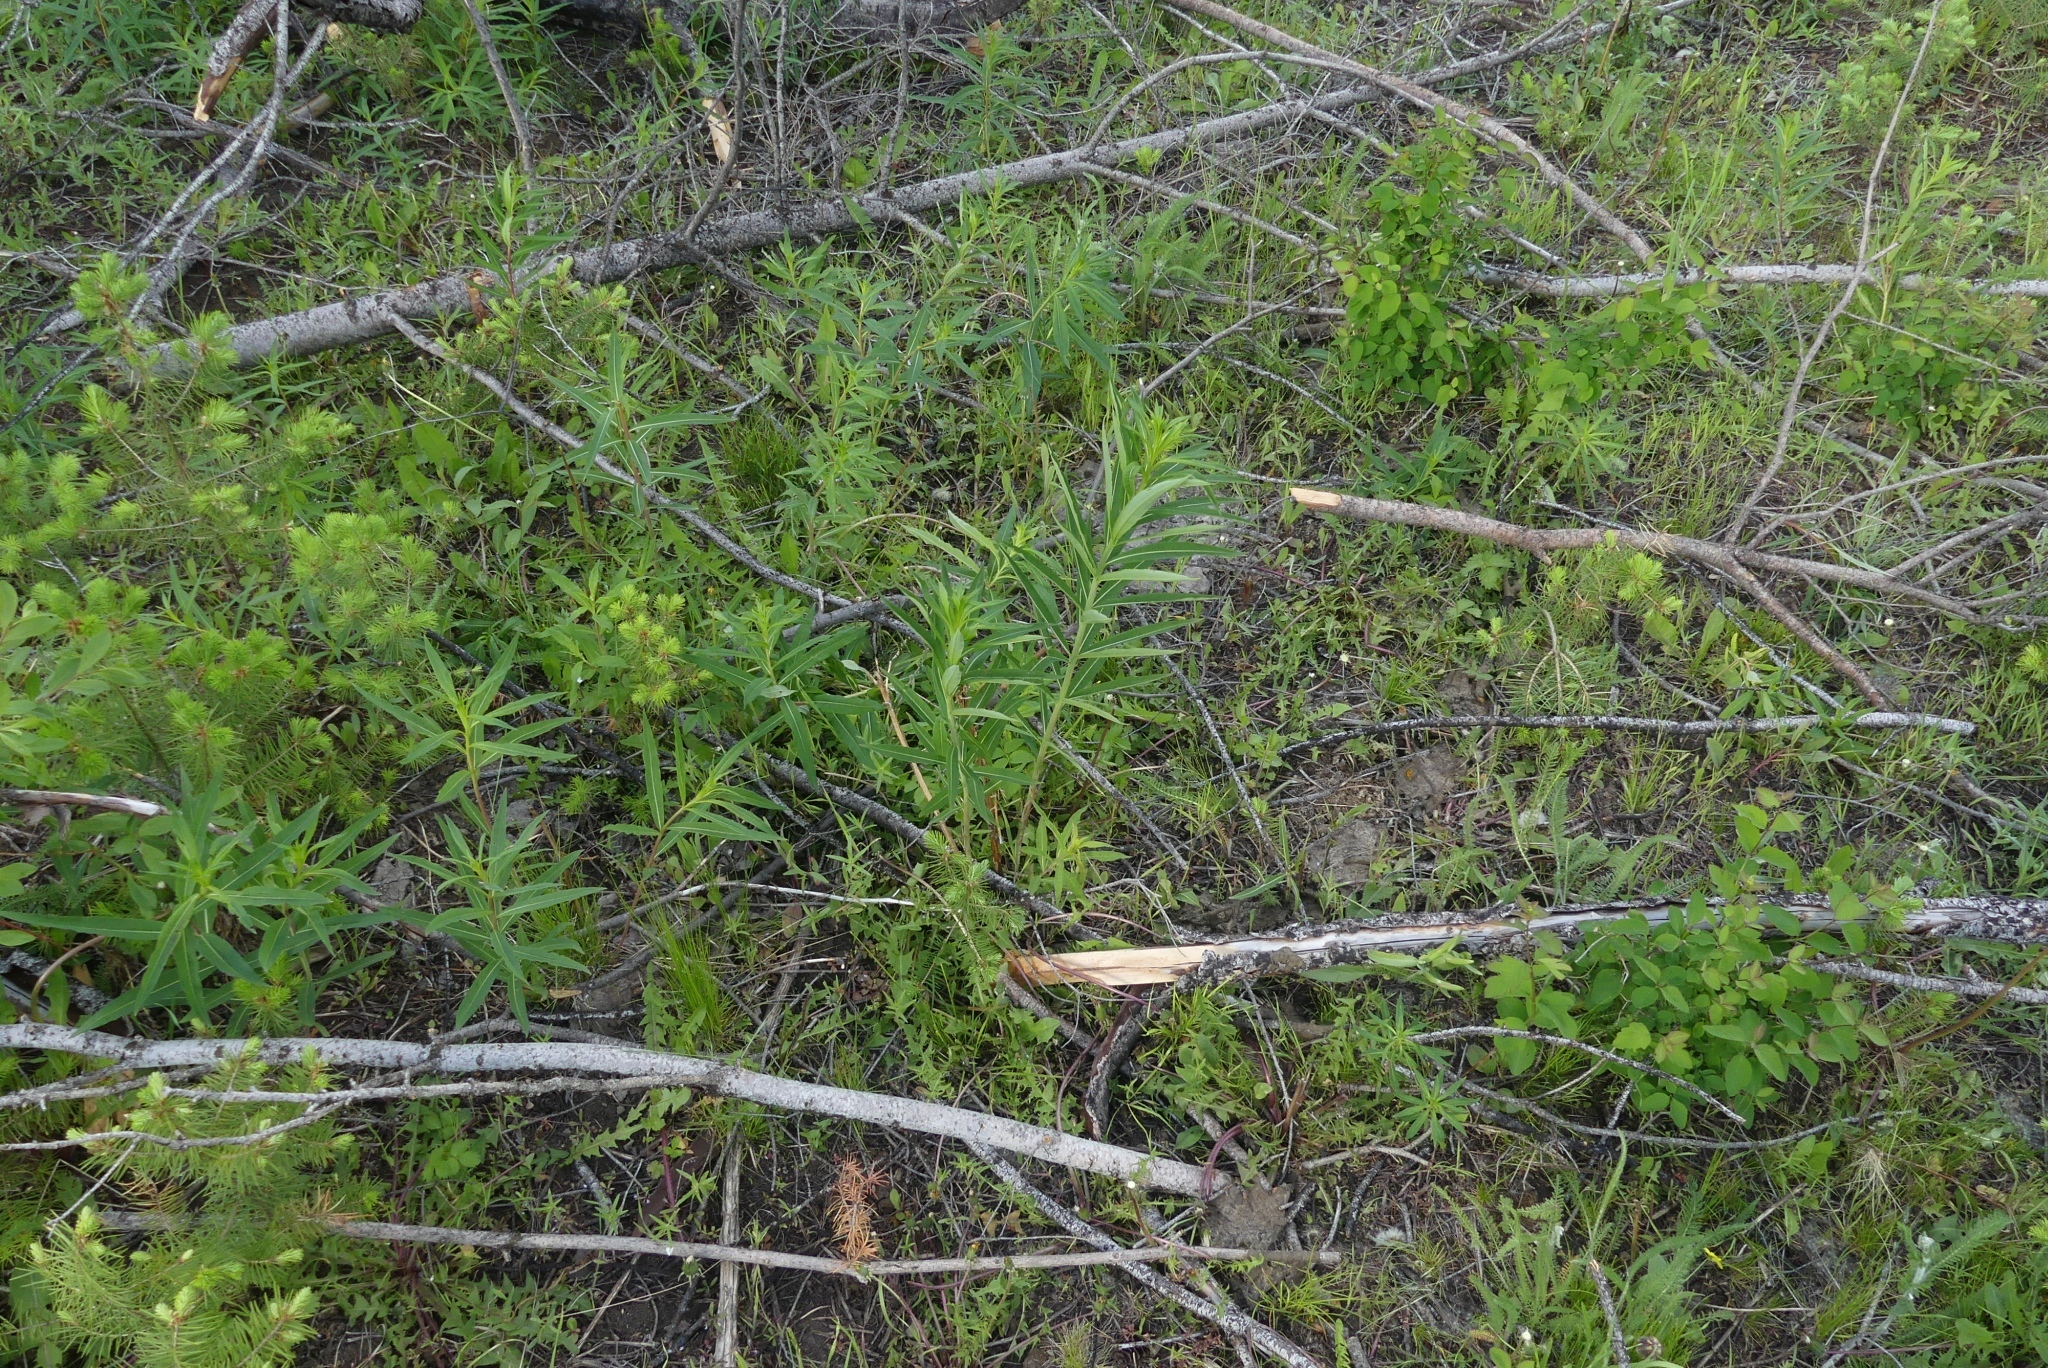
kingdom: Plantae
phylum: Tracheophyta
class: Magnoliopsida
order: Myrtales
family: Onagraceae
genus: Chamaenerion
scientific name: Chamaenerion angustifolium
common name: Fireweed
